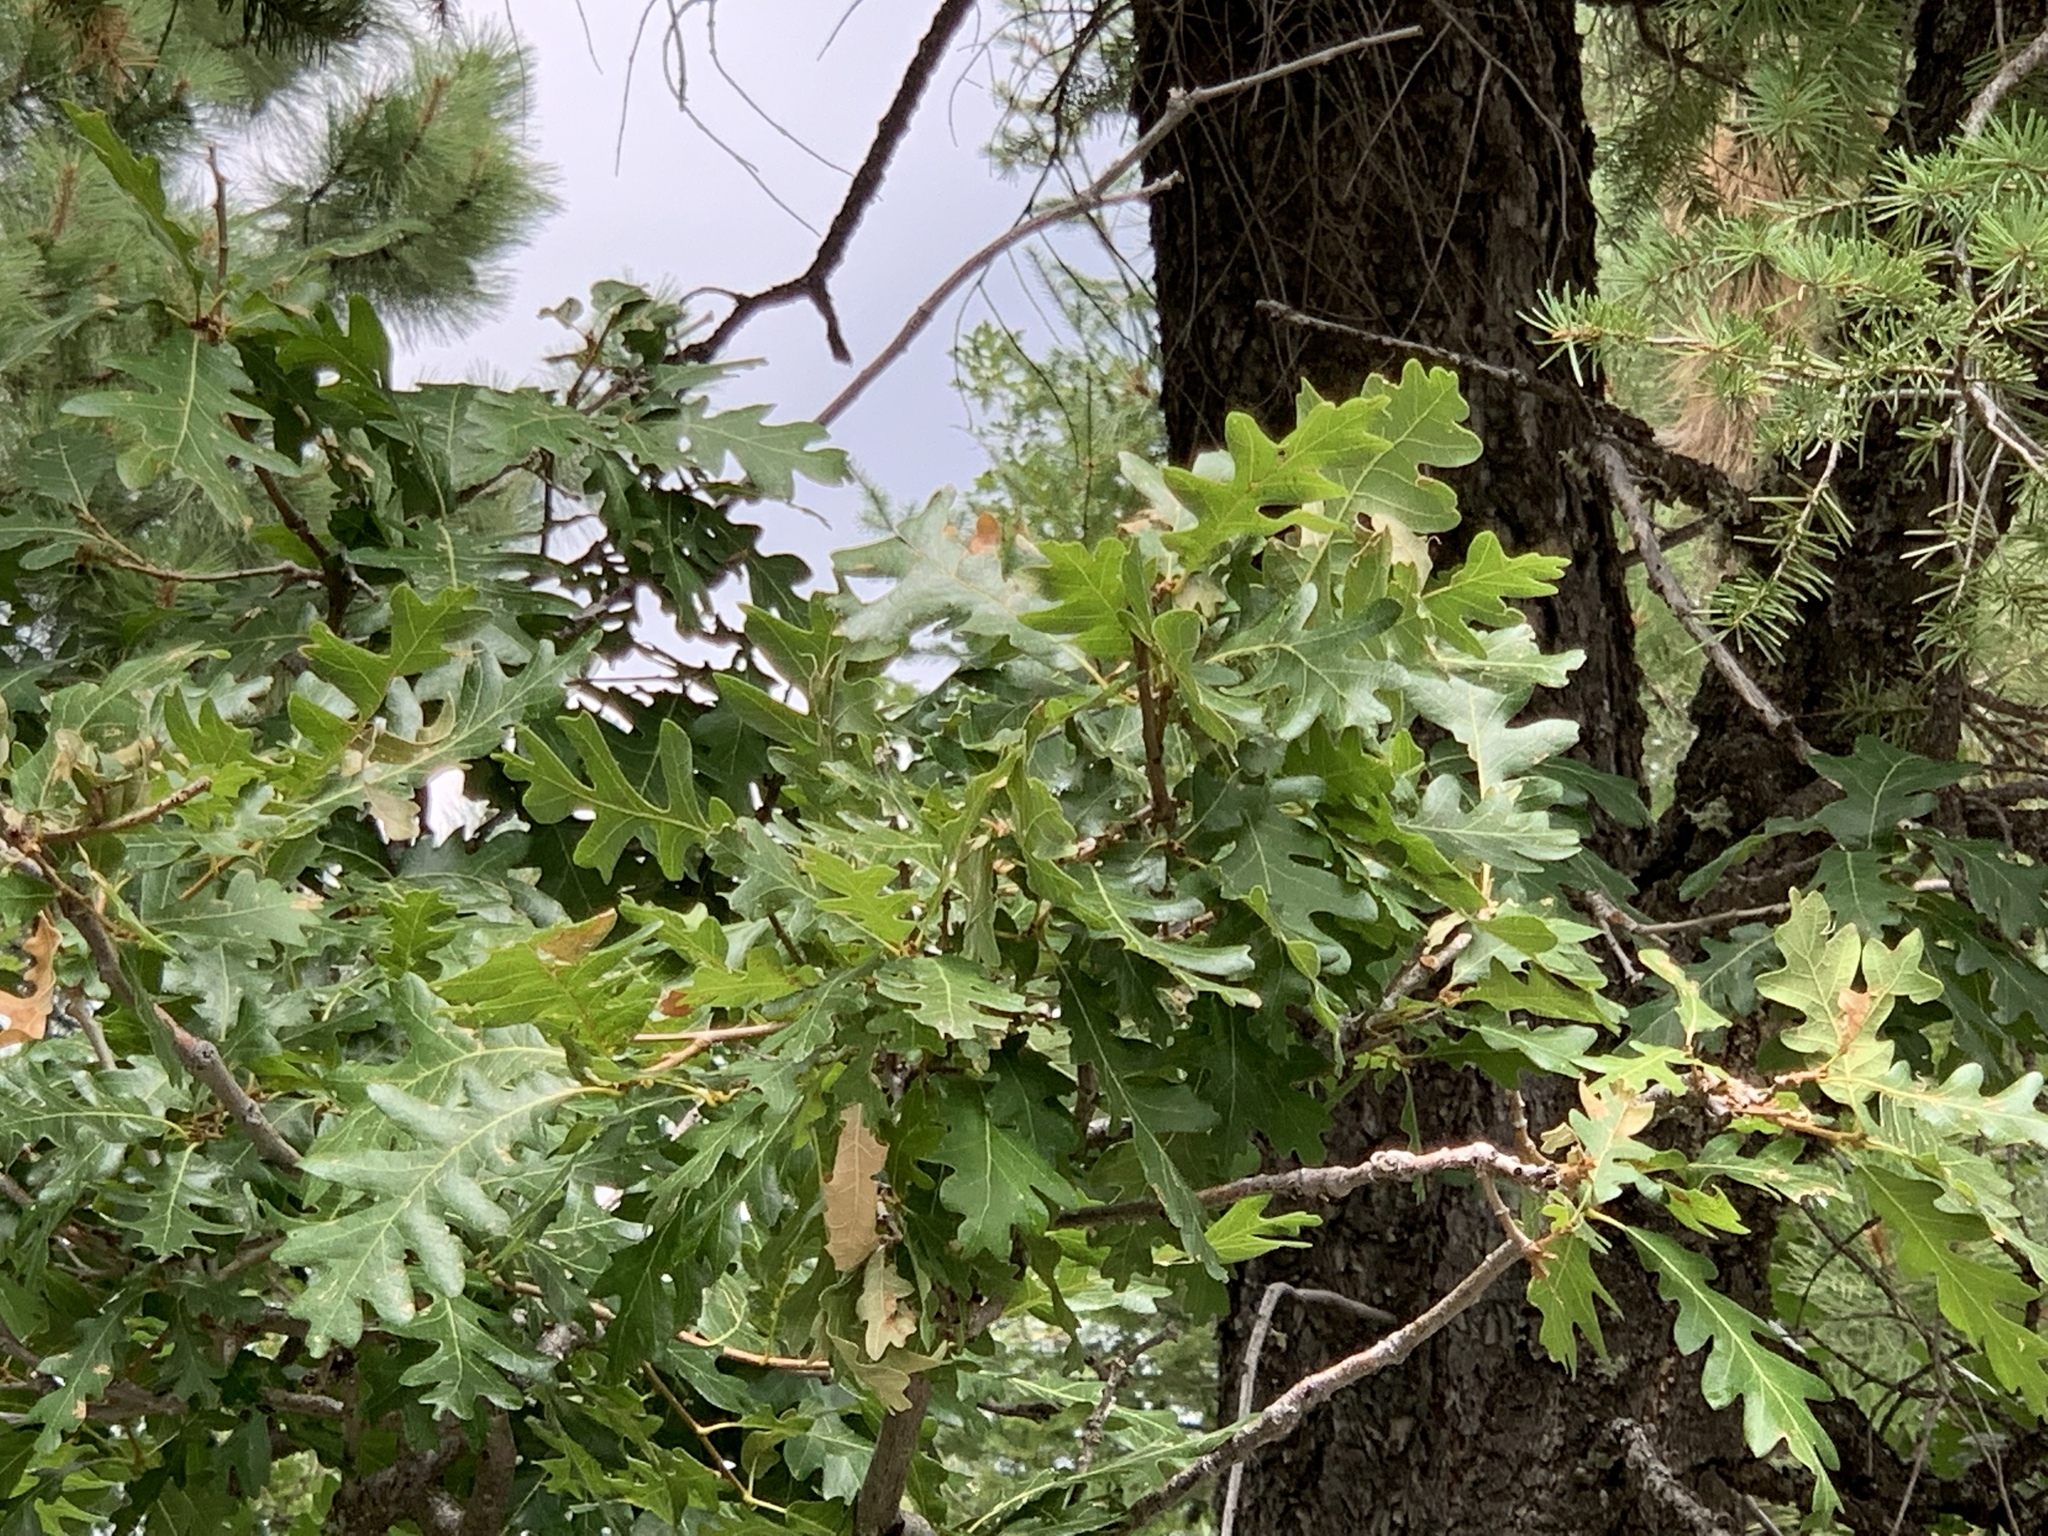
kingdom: Plantae
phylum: Tracheophyta
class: Magnoliopsida
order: Fagales
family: Fagaceae
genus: Quercus
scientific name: Quercus gambelii
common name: Gambel oak
